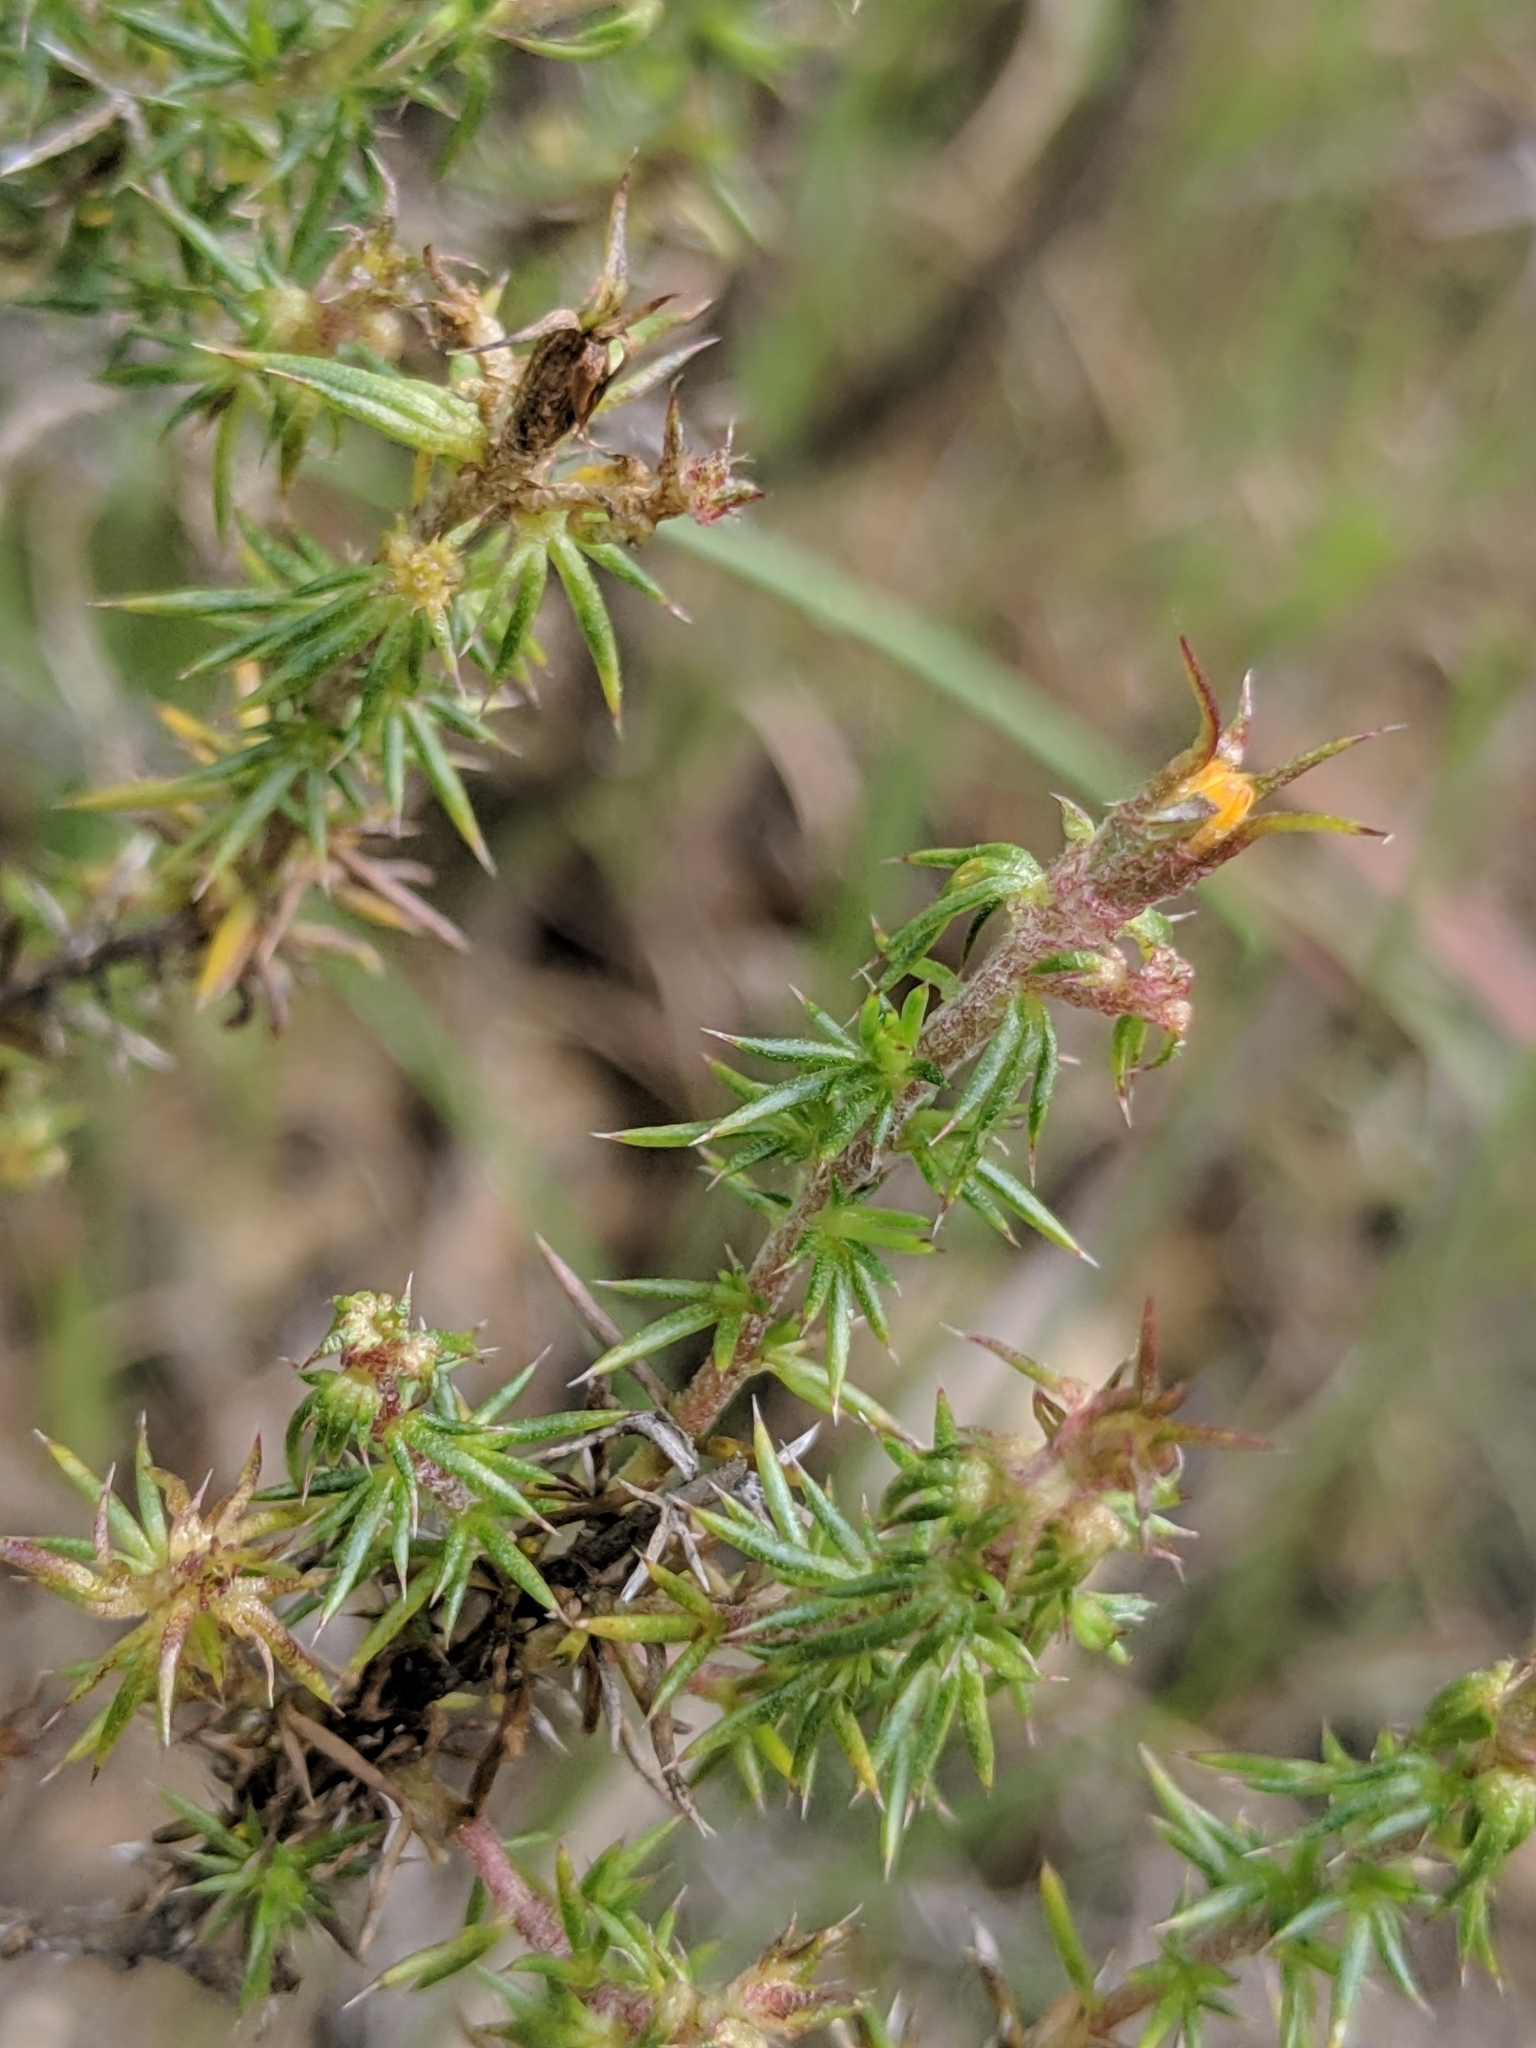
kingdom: Plantae
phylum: Tracheophyta
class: Magnoliopsida
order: Ericales
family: Polemoniaceae
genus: Linanthus
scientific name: Linanthus californicus
